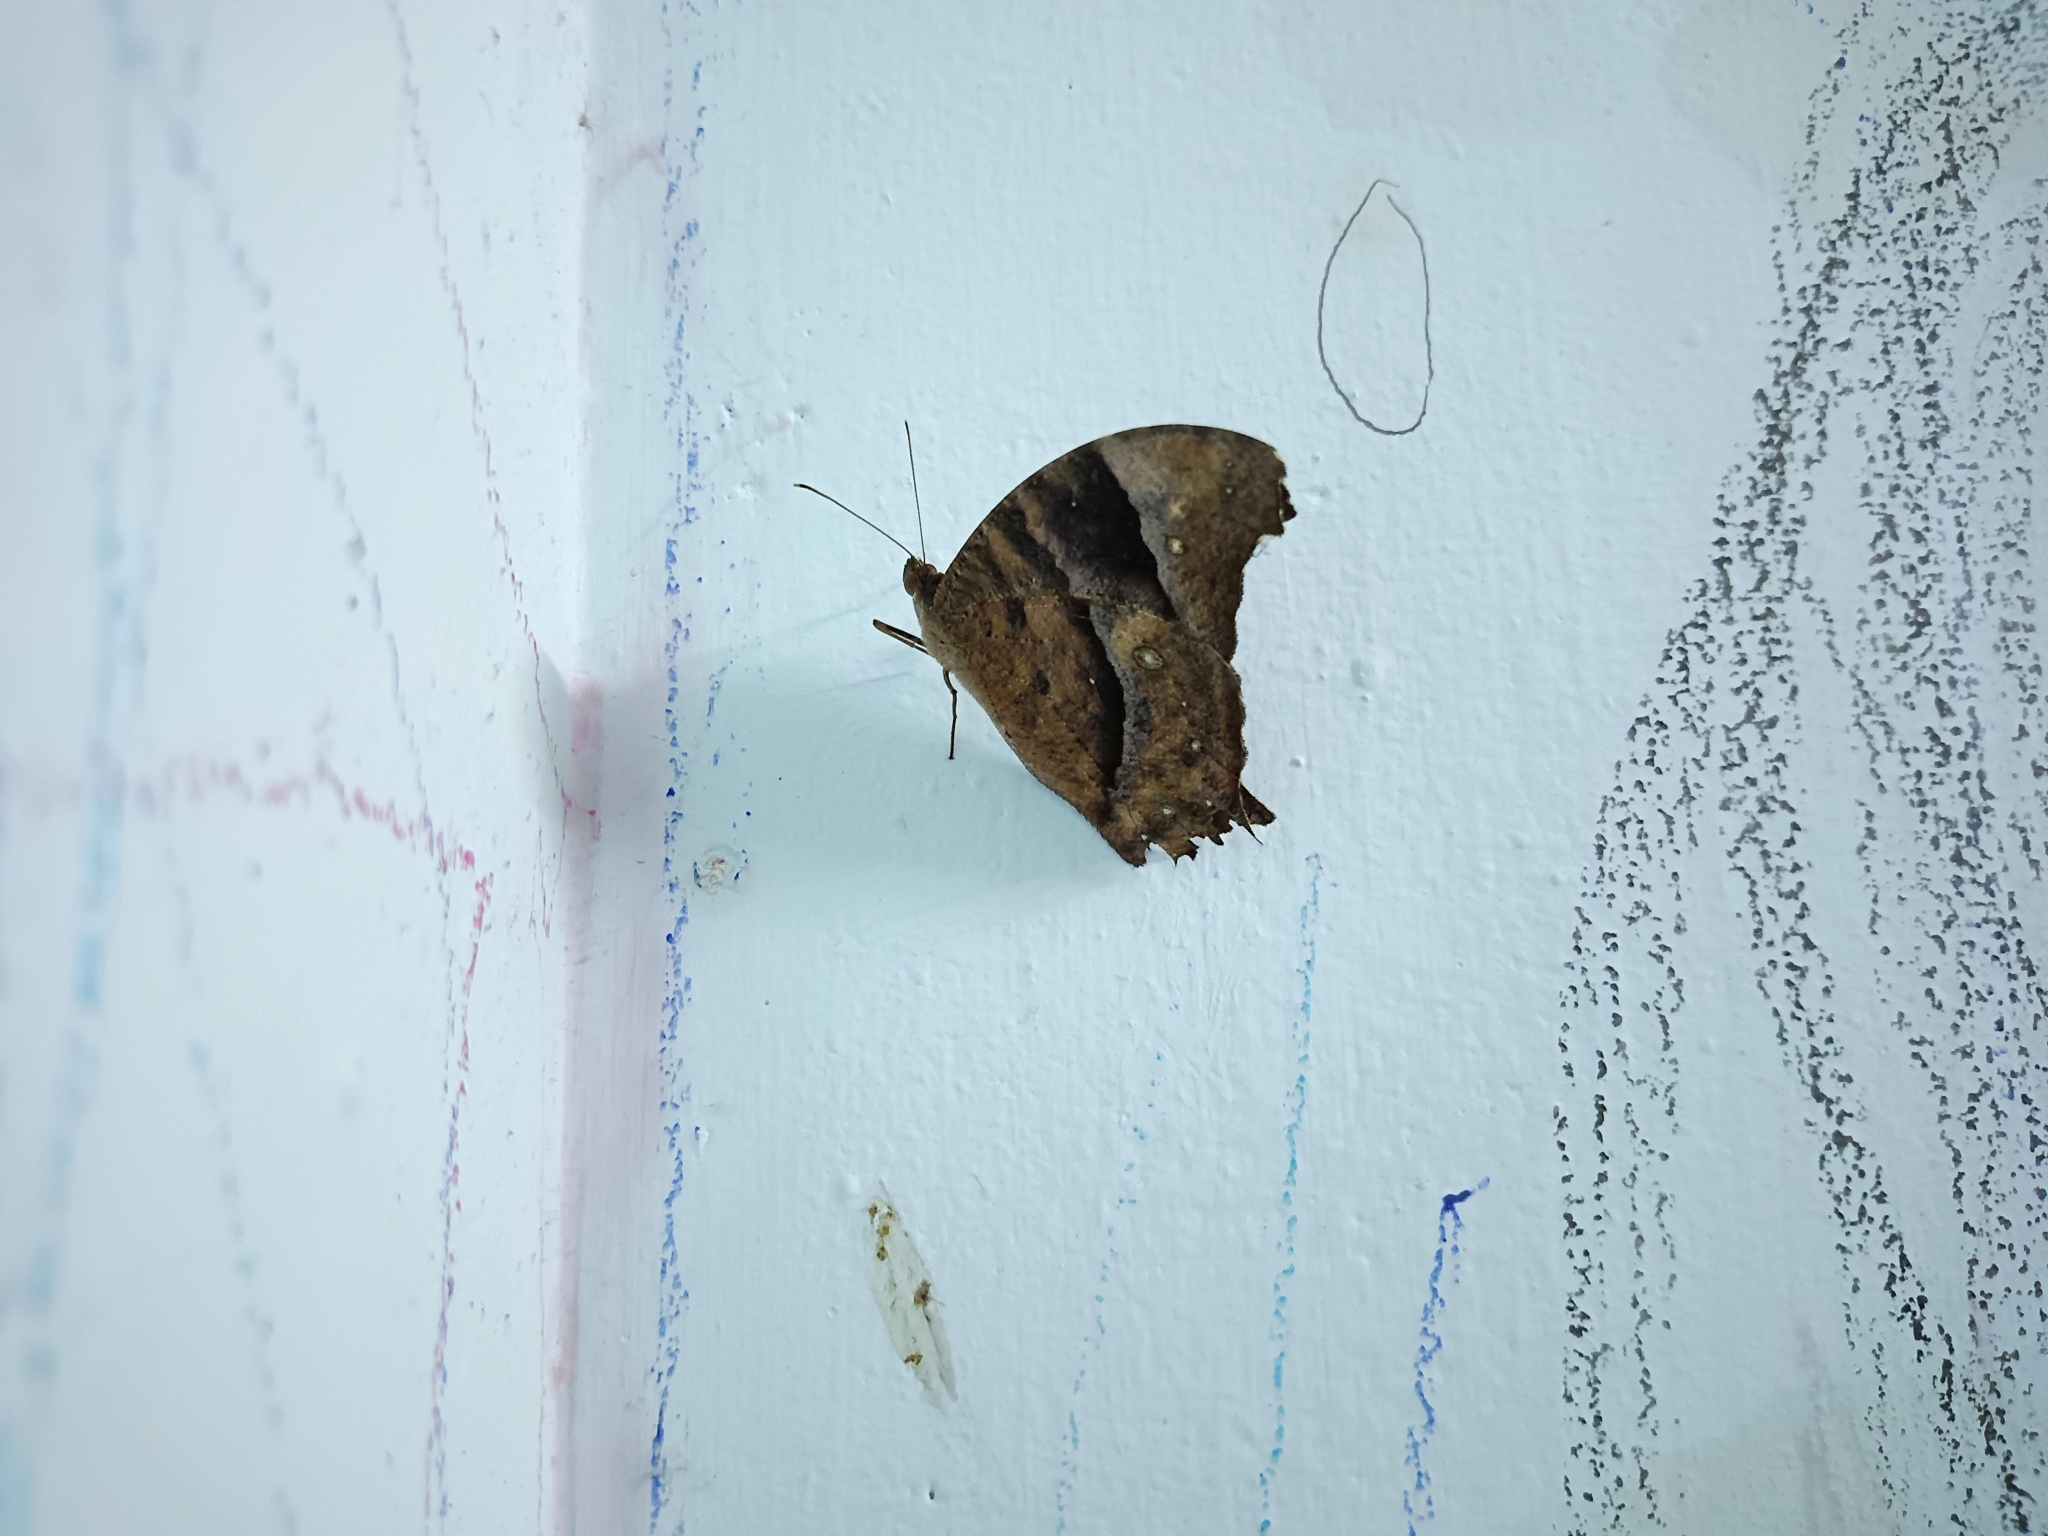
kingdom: Animalia
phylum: Arthropoda
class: Insecta
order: Lepidoptera
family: Nymphalidae
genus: Melanitis
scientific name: Melanitis leda
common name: Twilight brown
